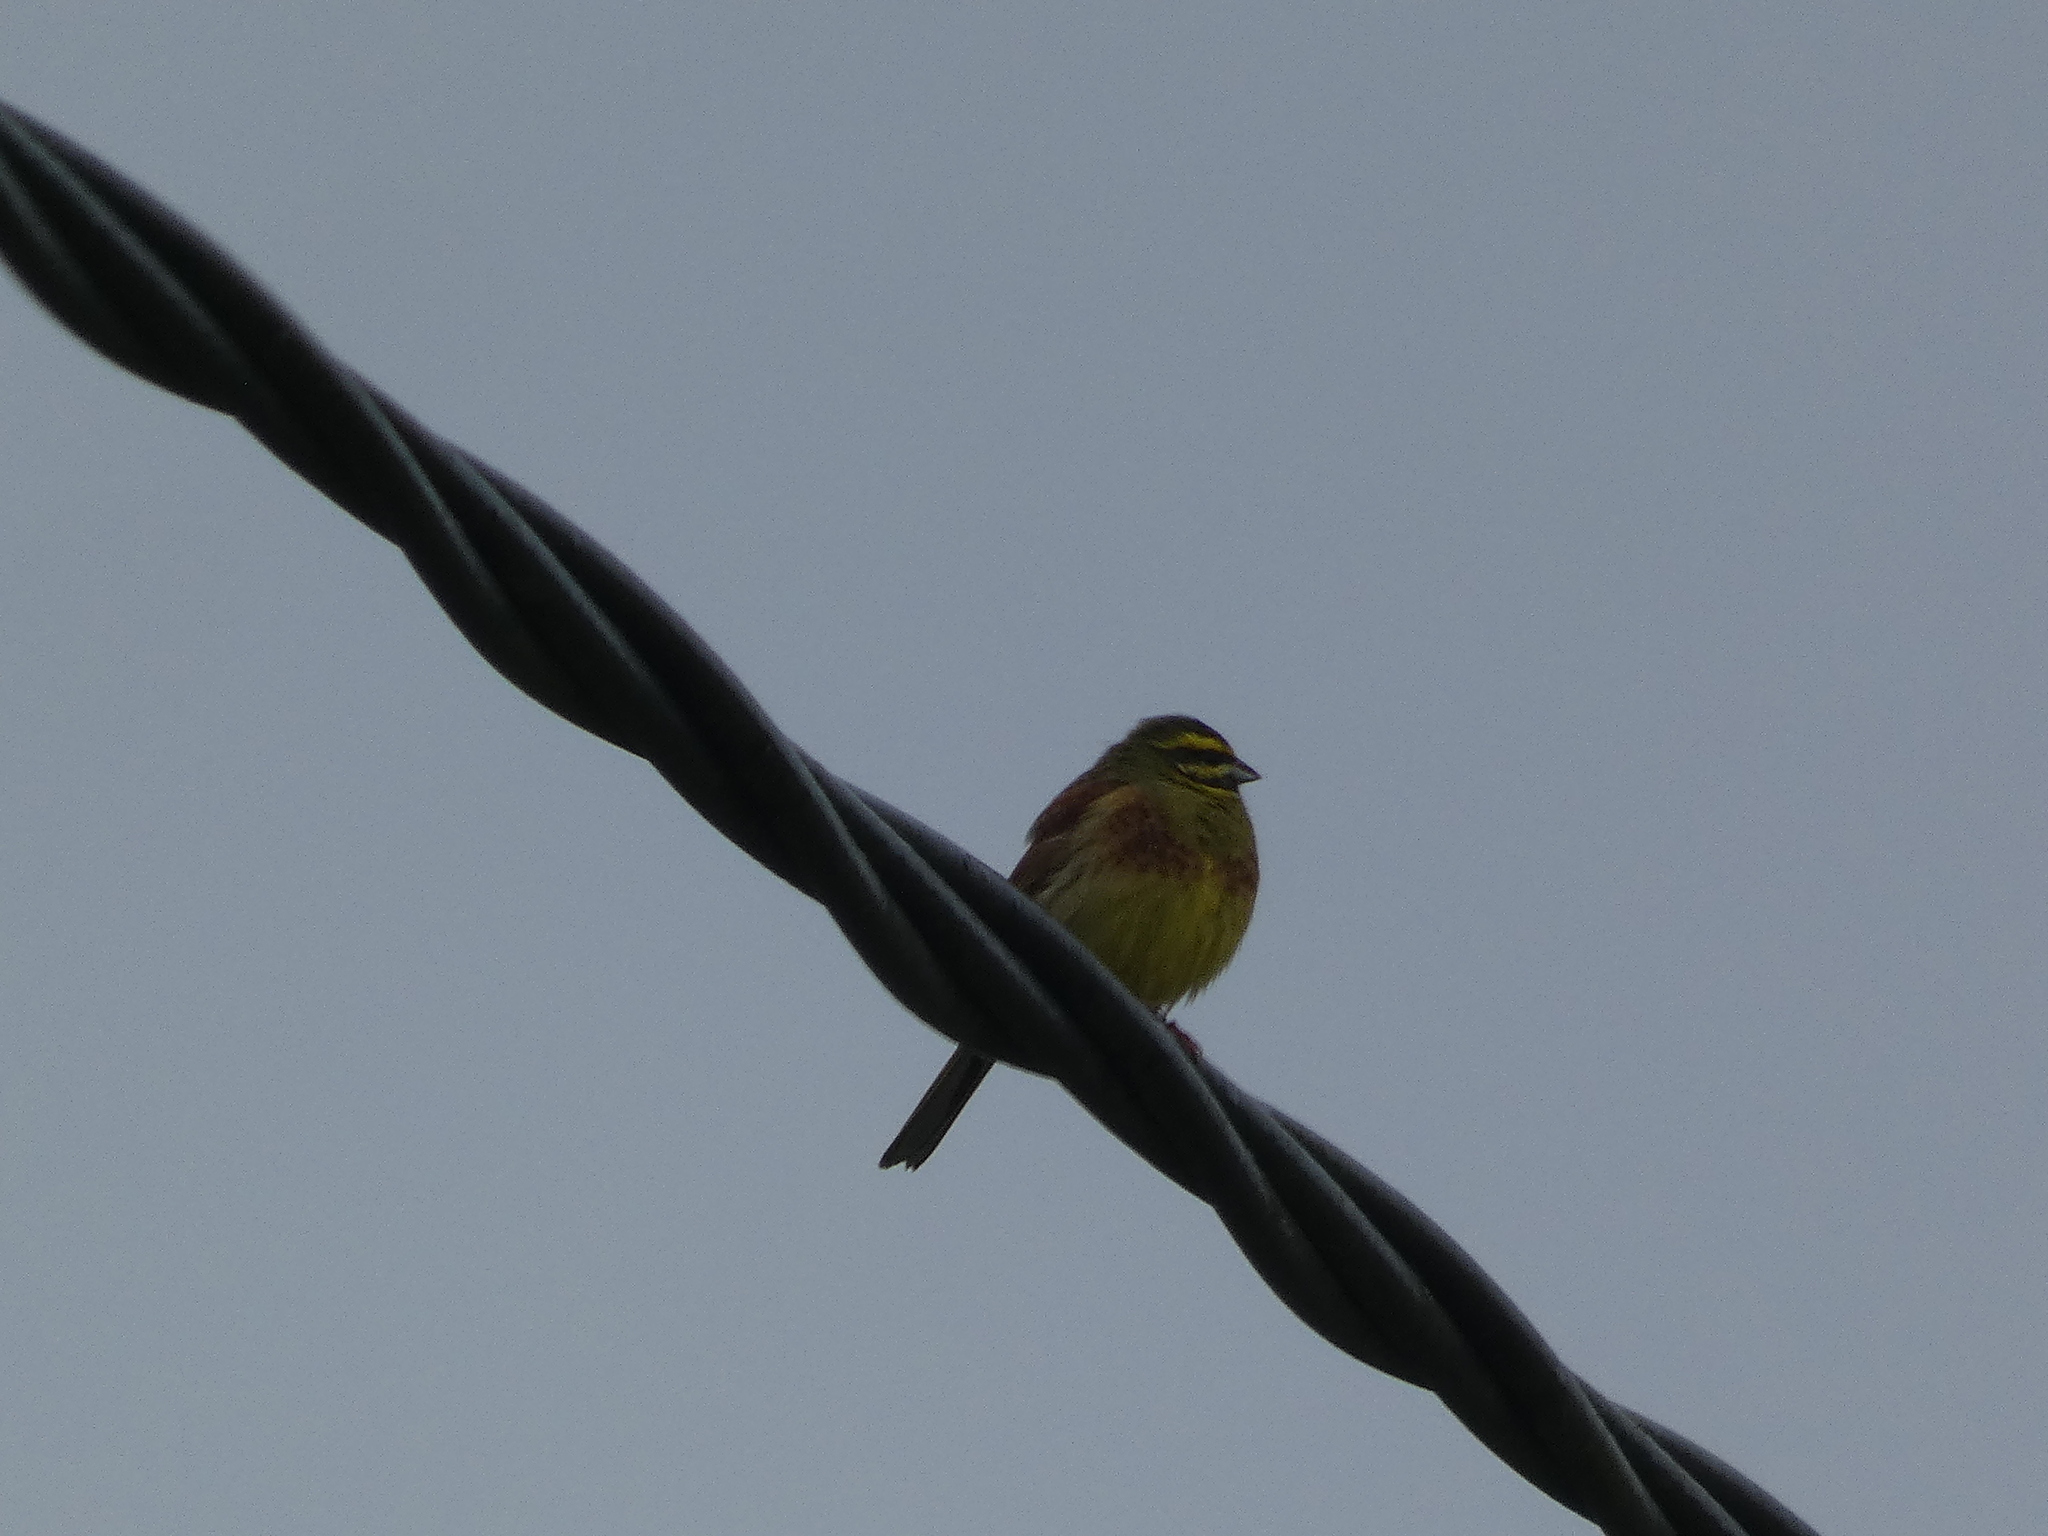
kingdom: Animalia
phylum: Chordata
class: Aves
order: Passeriformes
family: Emberizidae
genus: Emberiza
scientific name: Emberiza cirlus
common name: Cirl bunting
